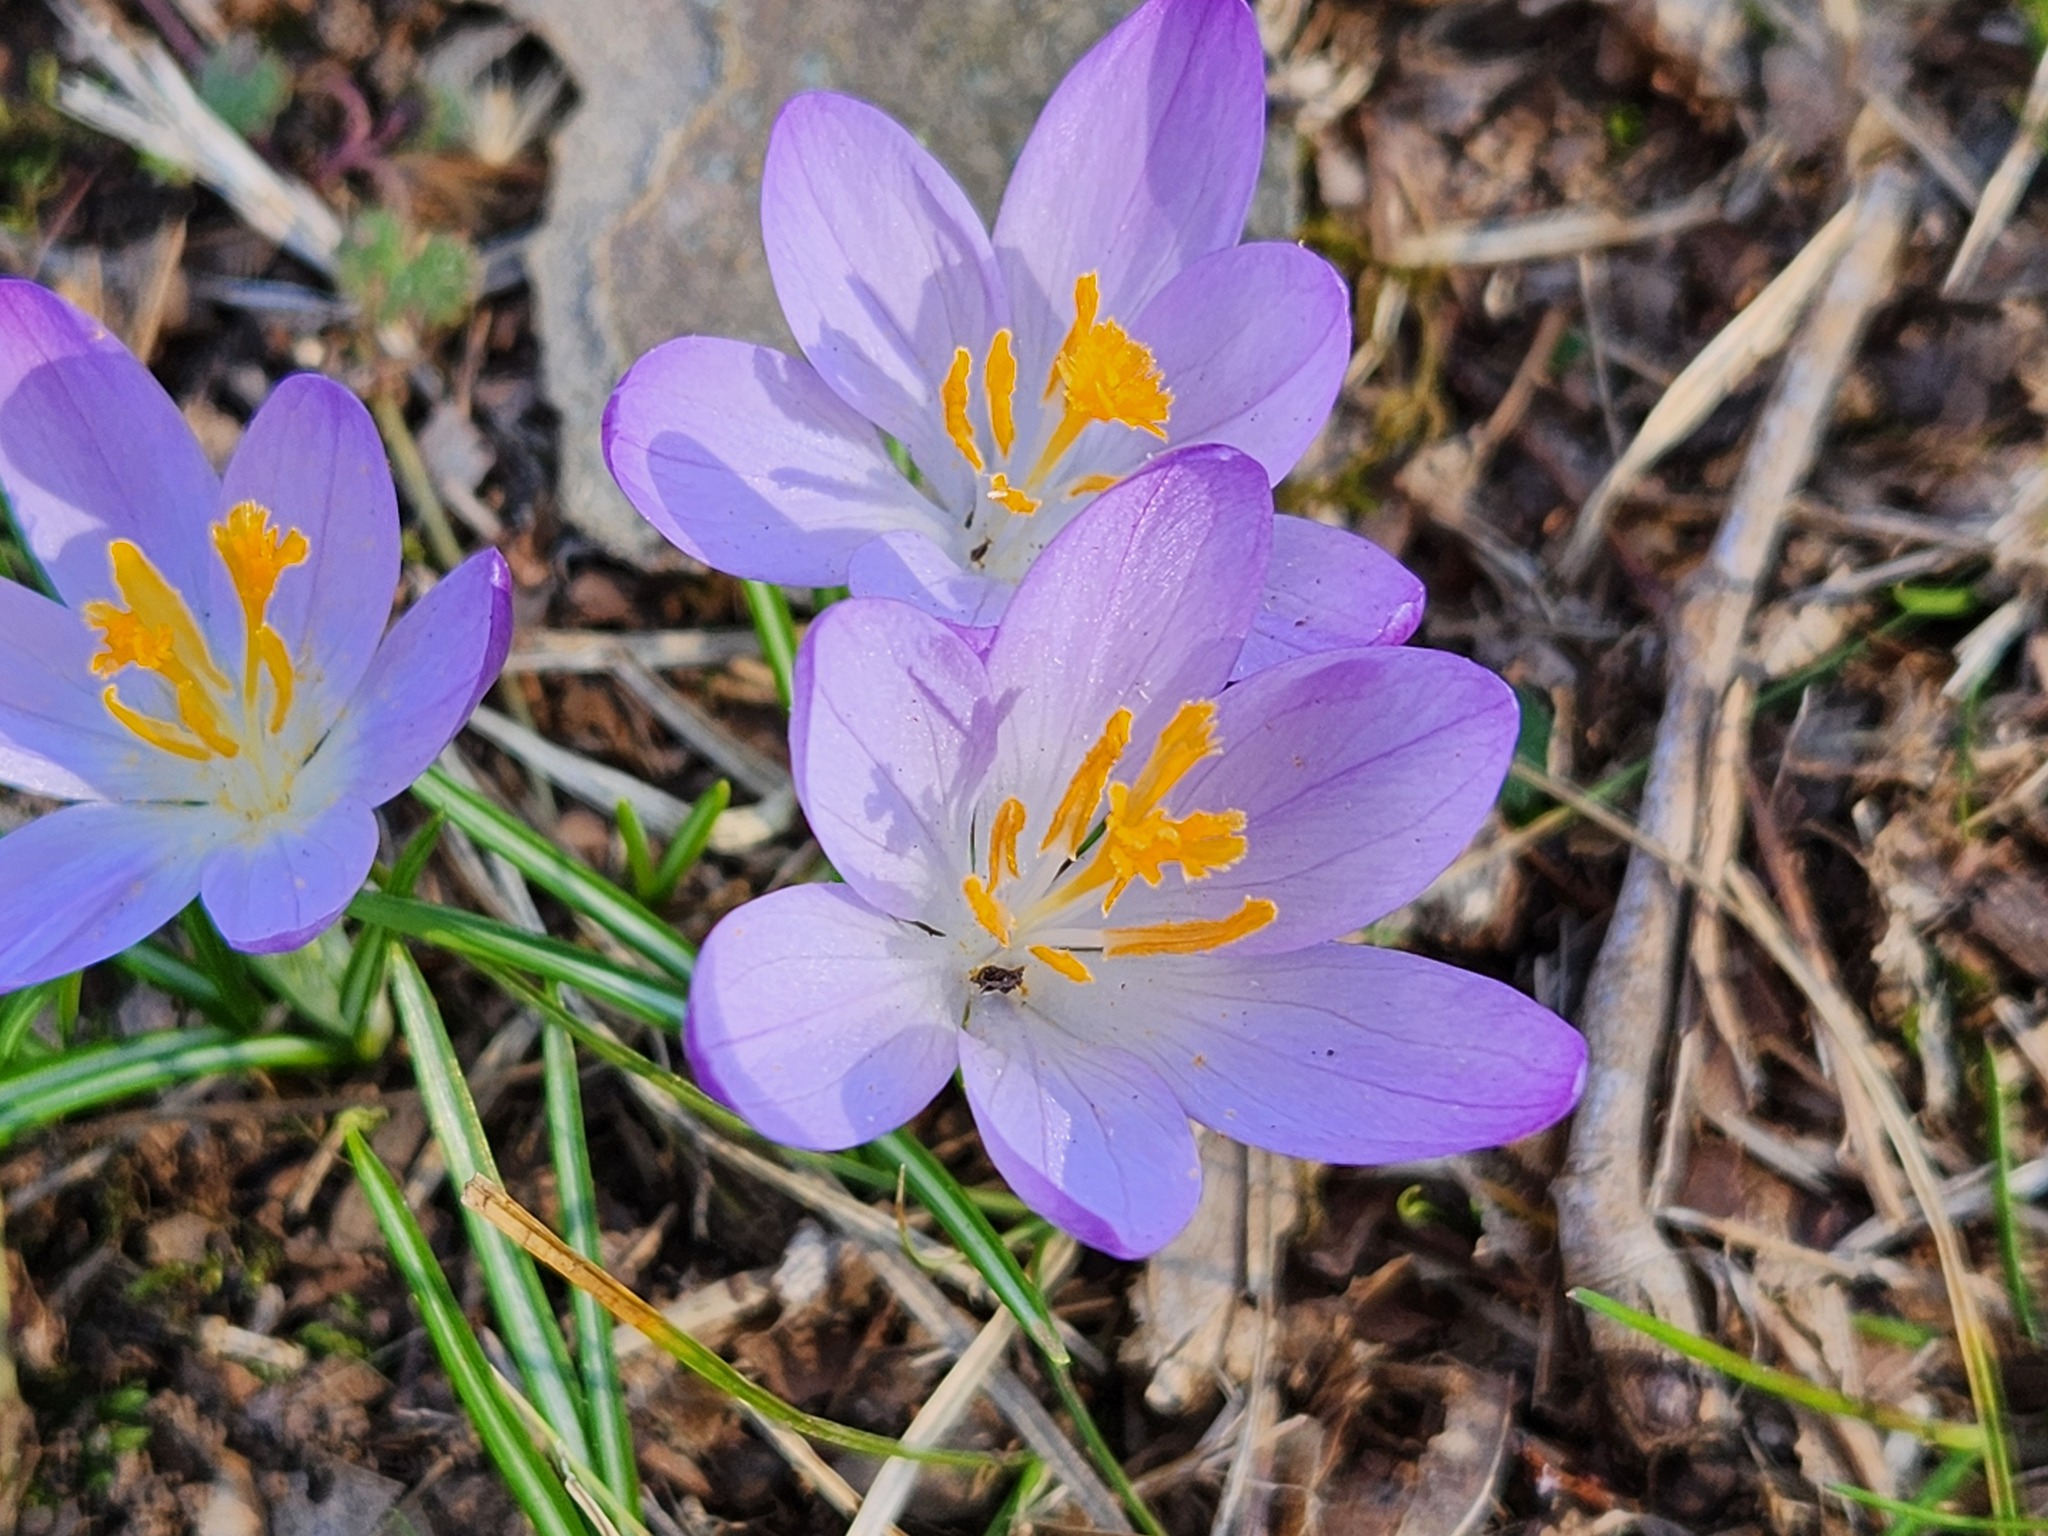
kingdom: Plantae
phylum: Tracheophyta
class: Liliopsida
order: Asparagales
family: Iridaceae
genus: Crocus
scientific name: Crocus tommasinianus
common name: Early crocus
